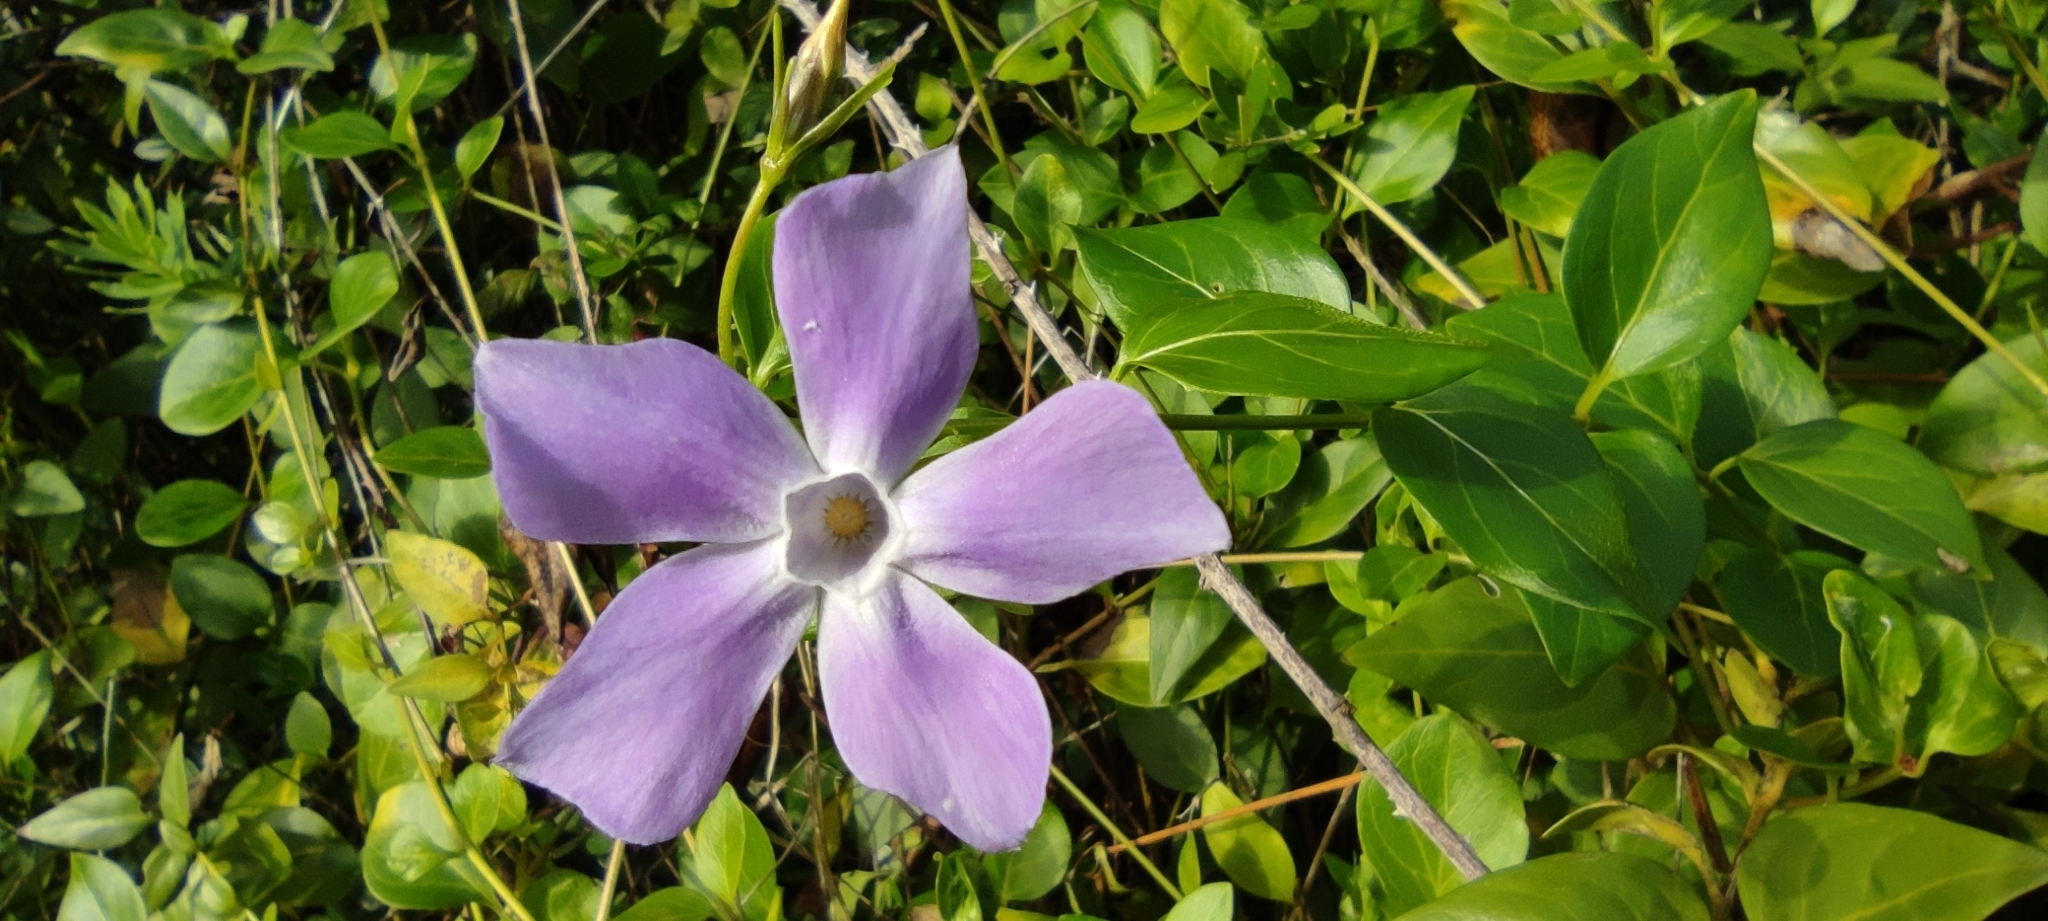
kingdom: Plantae
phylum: Tracheophyta
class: Magnoliopsida
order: Gentianales
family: Apocynaceae
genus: Vinca
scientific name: Vinca difformis
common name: Intermediate periwinkle
